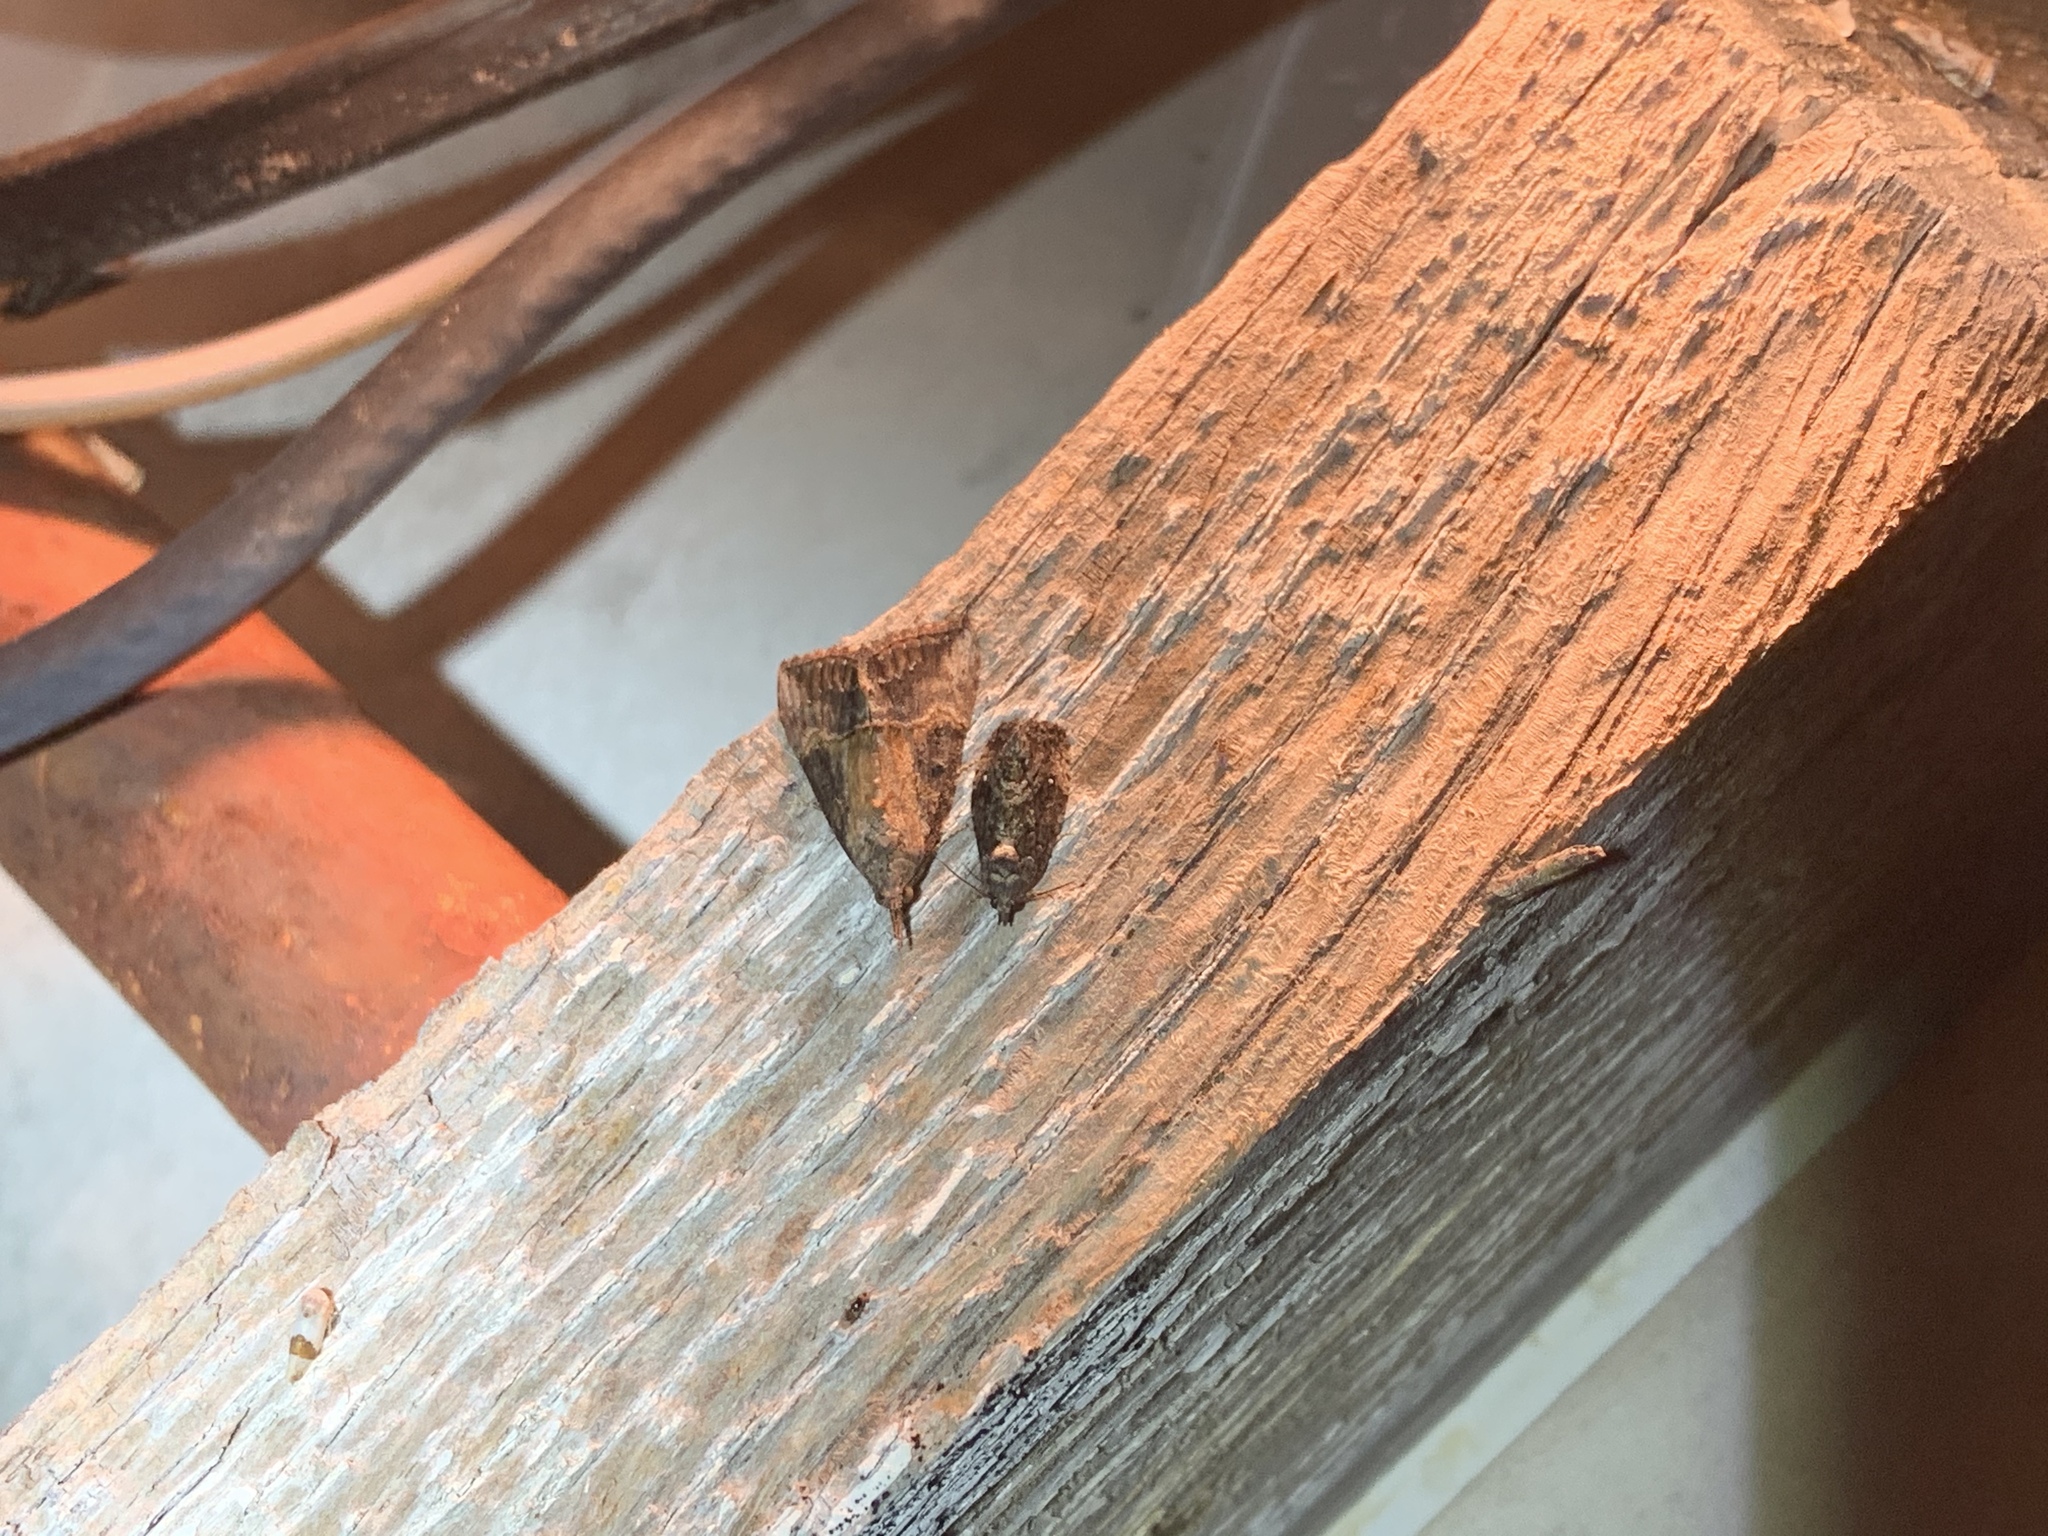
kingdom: Animalia
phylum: Arthropoda
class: Insecta
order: Lepidoptera
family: Erebidae
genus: Hypena
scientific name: Hypena scabra
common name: Green cloverworm
